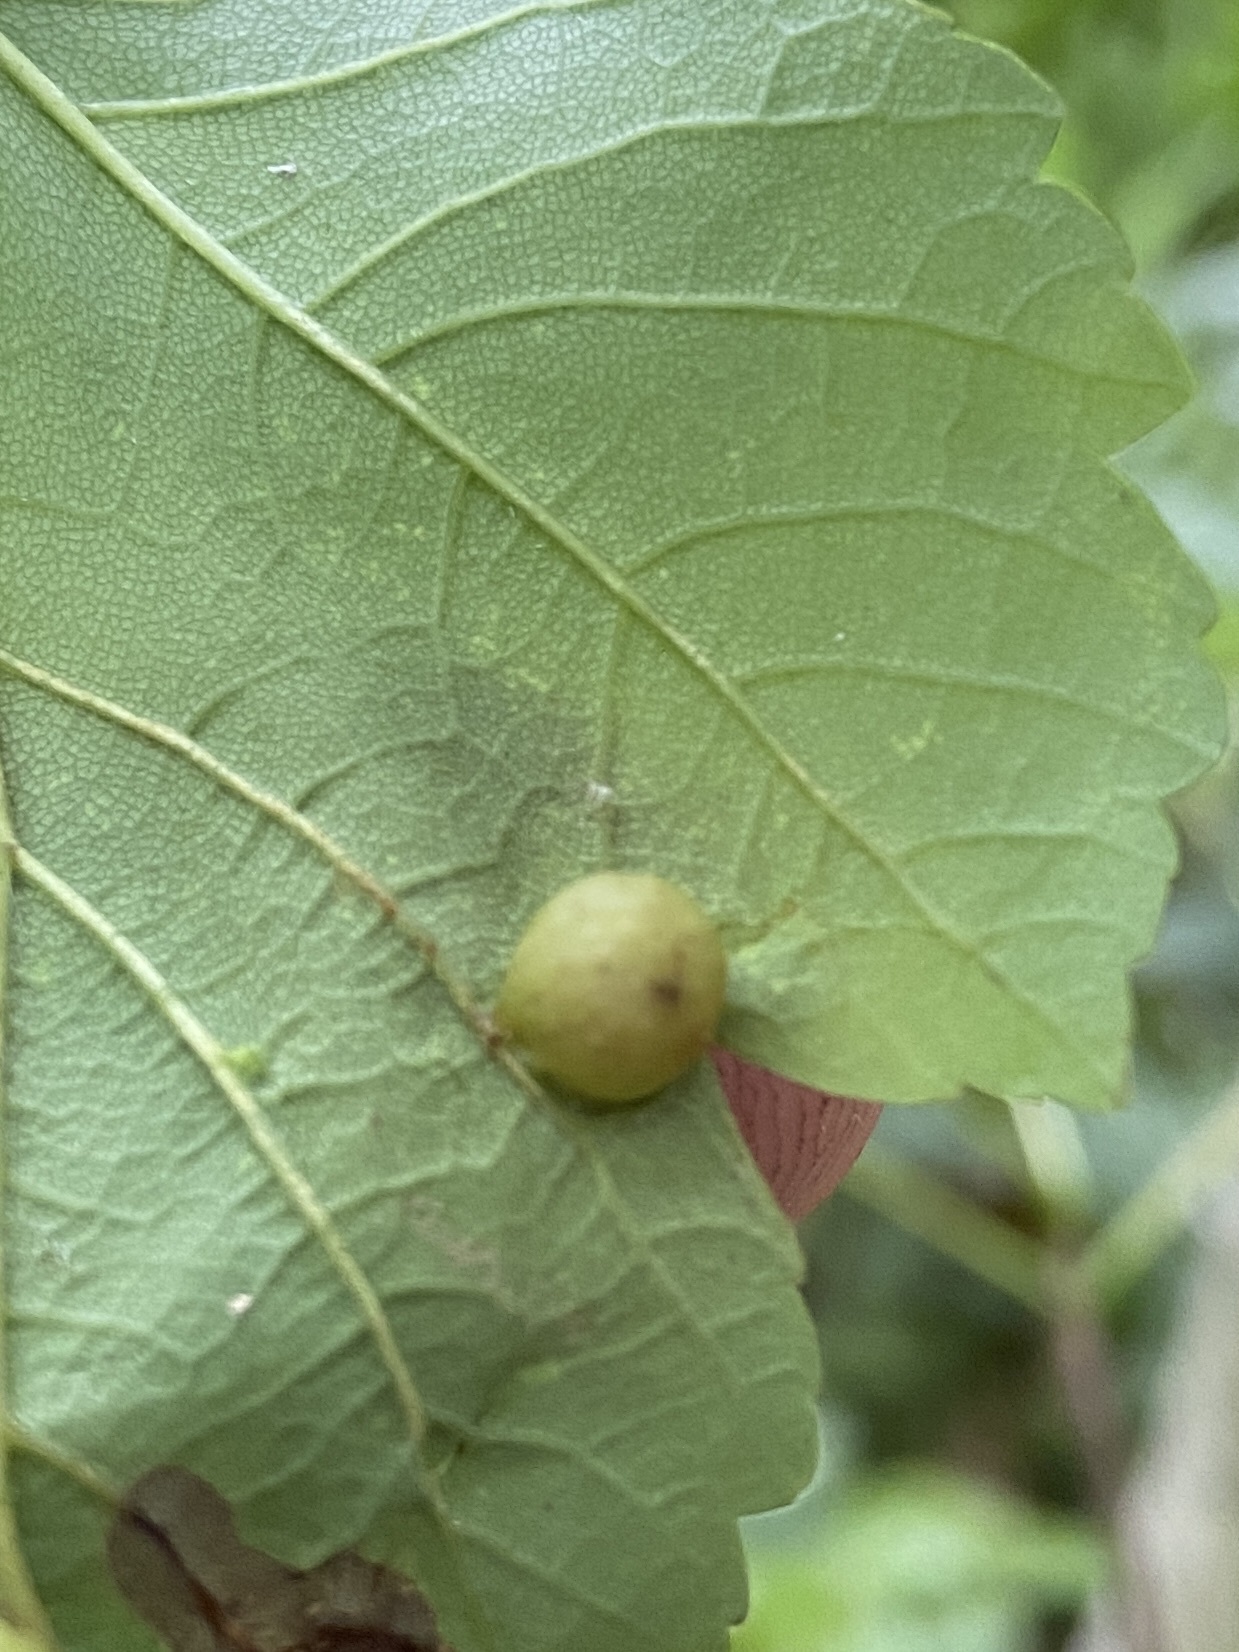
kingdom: Animalia
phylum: Arthropoda
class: Insecta
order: Hymenoptera
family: Cynipidae
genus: Pediaspis
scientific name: Pediaspis aceris
